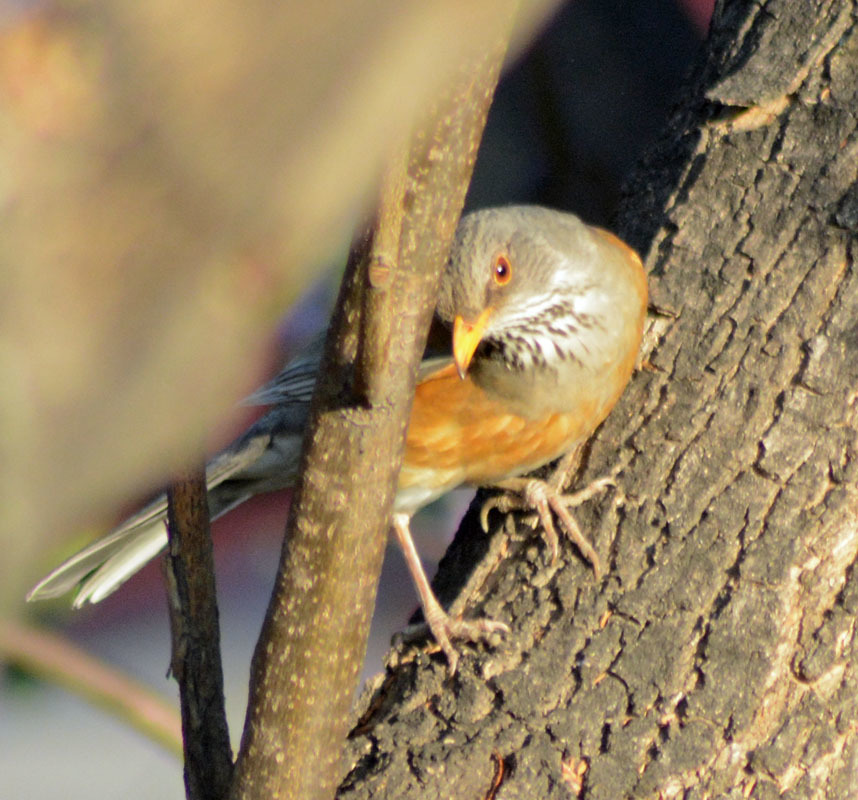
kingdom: Animalia
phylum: Chordata
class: Aves
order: Passeriformes
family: Turdidae
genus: Turdus
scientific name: Turdus rufopalliatus
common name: Rufous-backed robin
